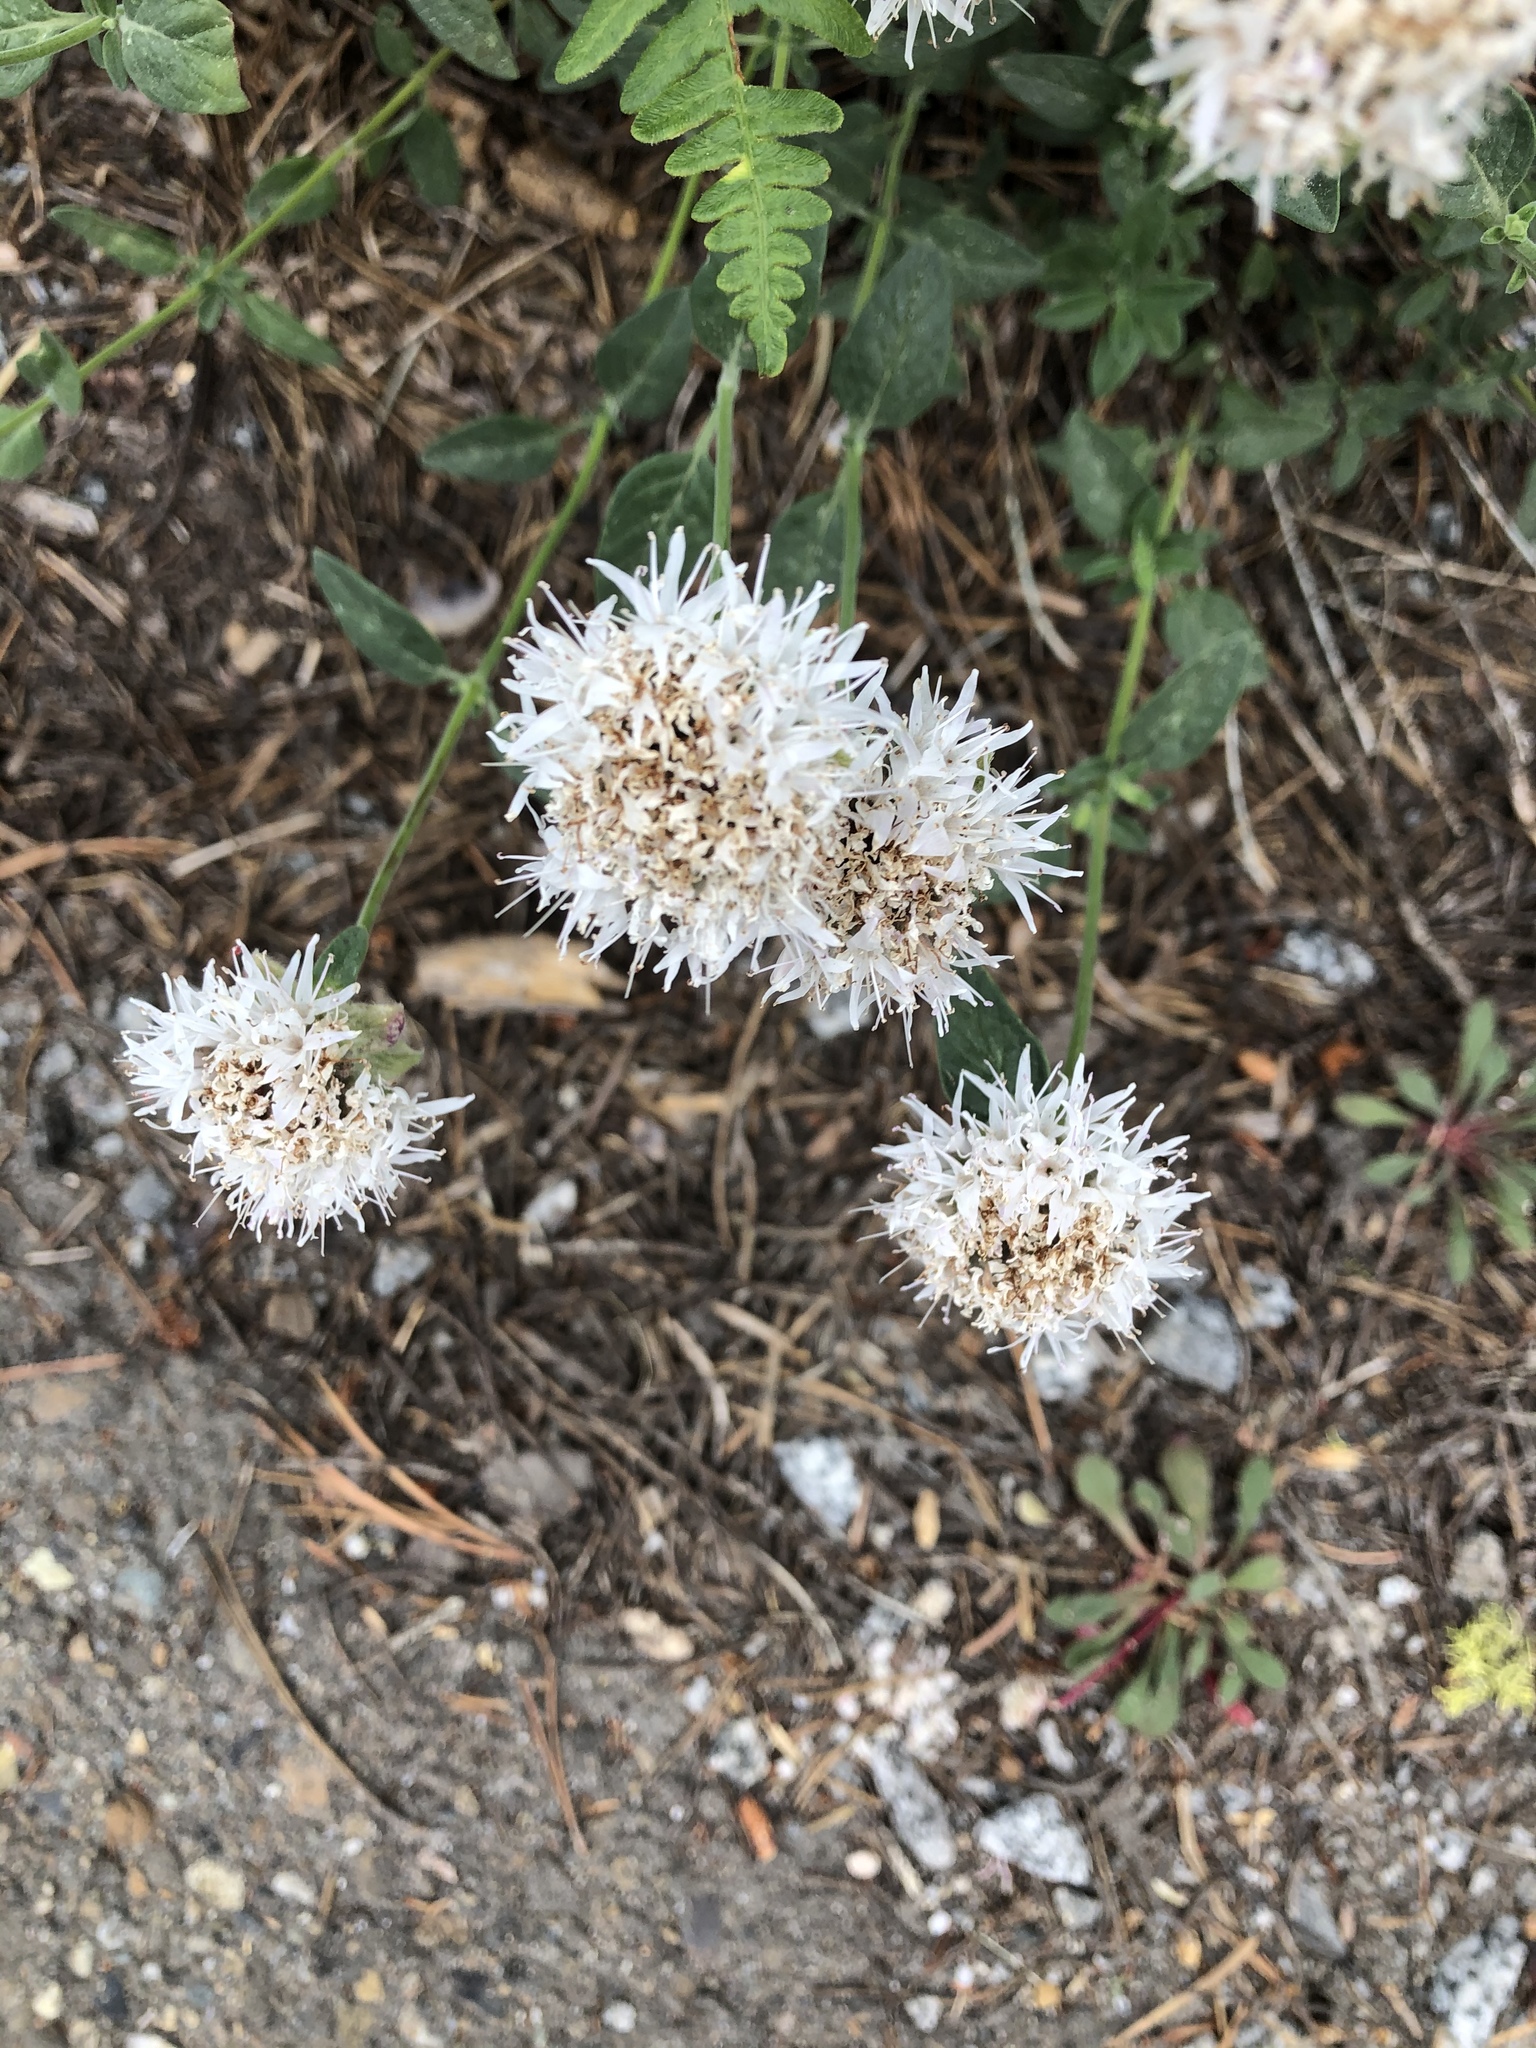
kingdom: Plantae
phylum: Tracheophyta
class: Magnoliopsida
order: Lamiales
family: Lamiaceae
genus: Monardella
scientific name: Monardella odoratissima
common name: Pacific monardella
